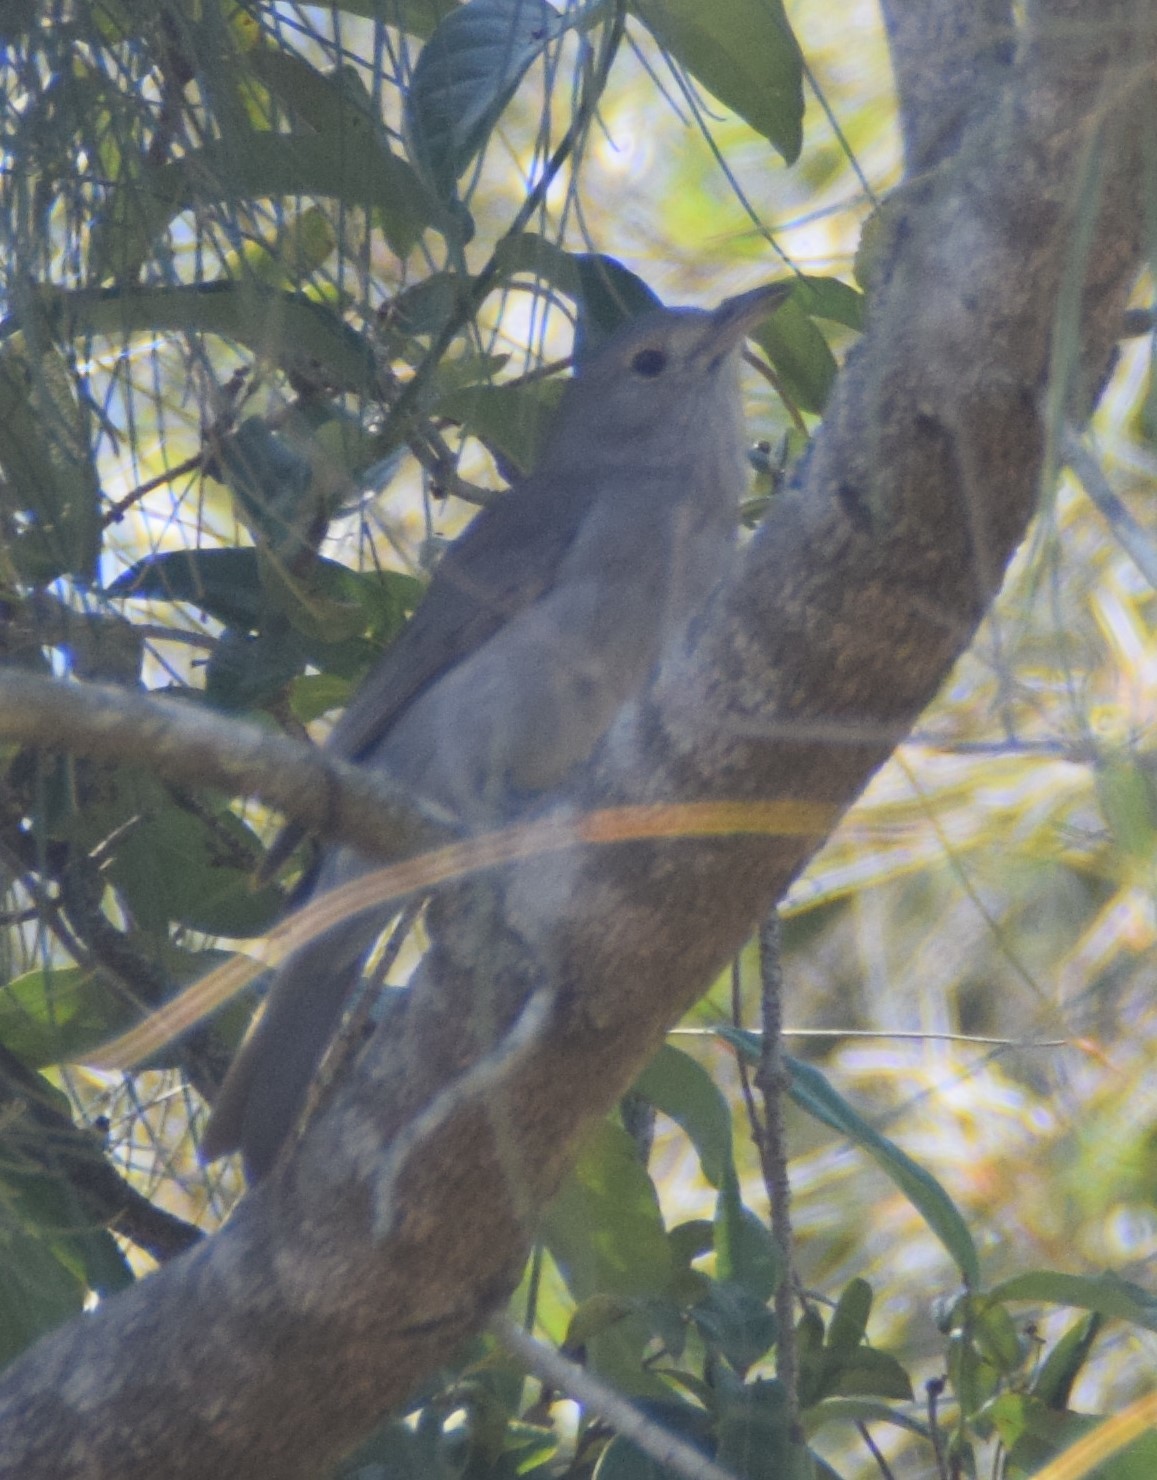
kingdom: Animalia
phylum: Chordata
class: Aves
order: Passeriformes
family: Pachycephalidae
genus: Colluricincla
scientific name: Colluricincla harmonica
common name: Grey shrikethrush
